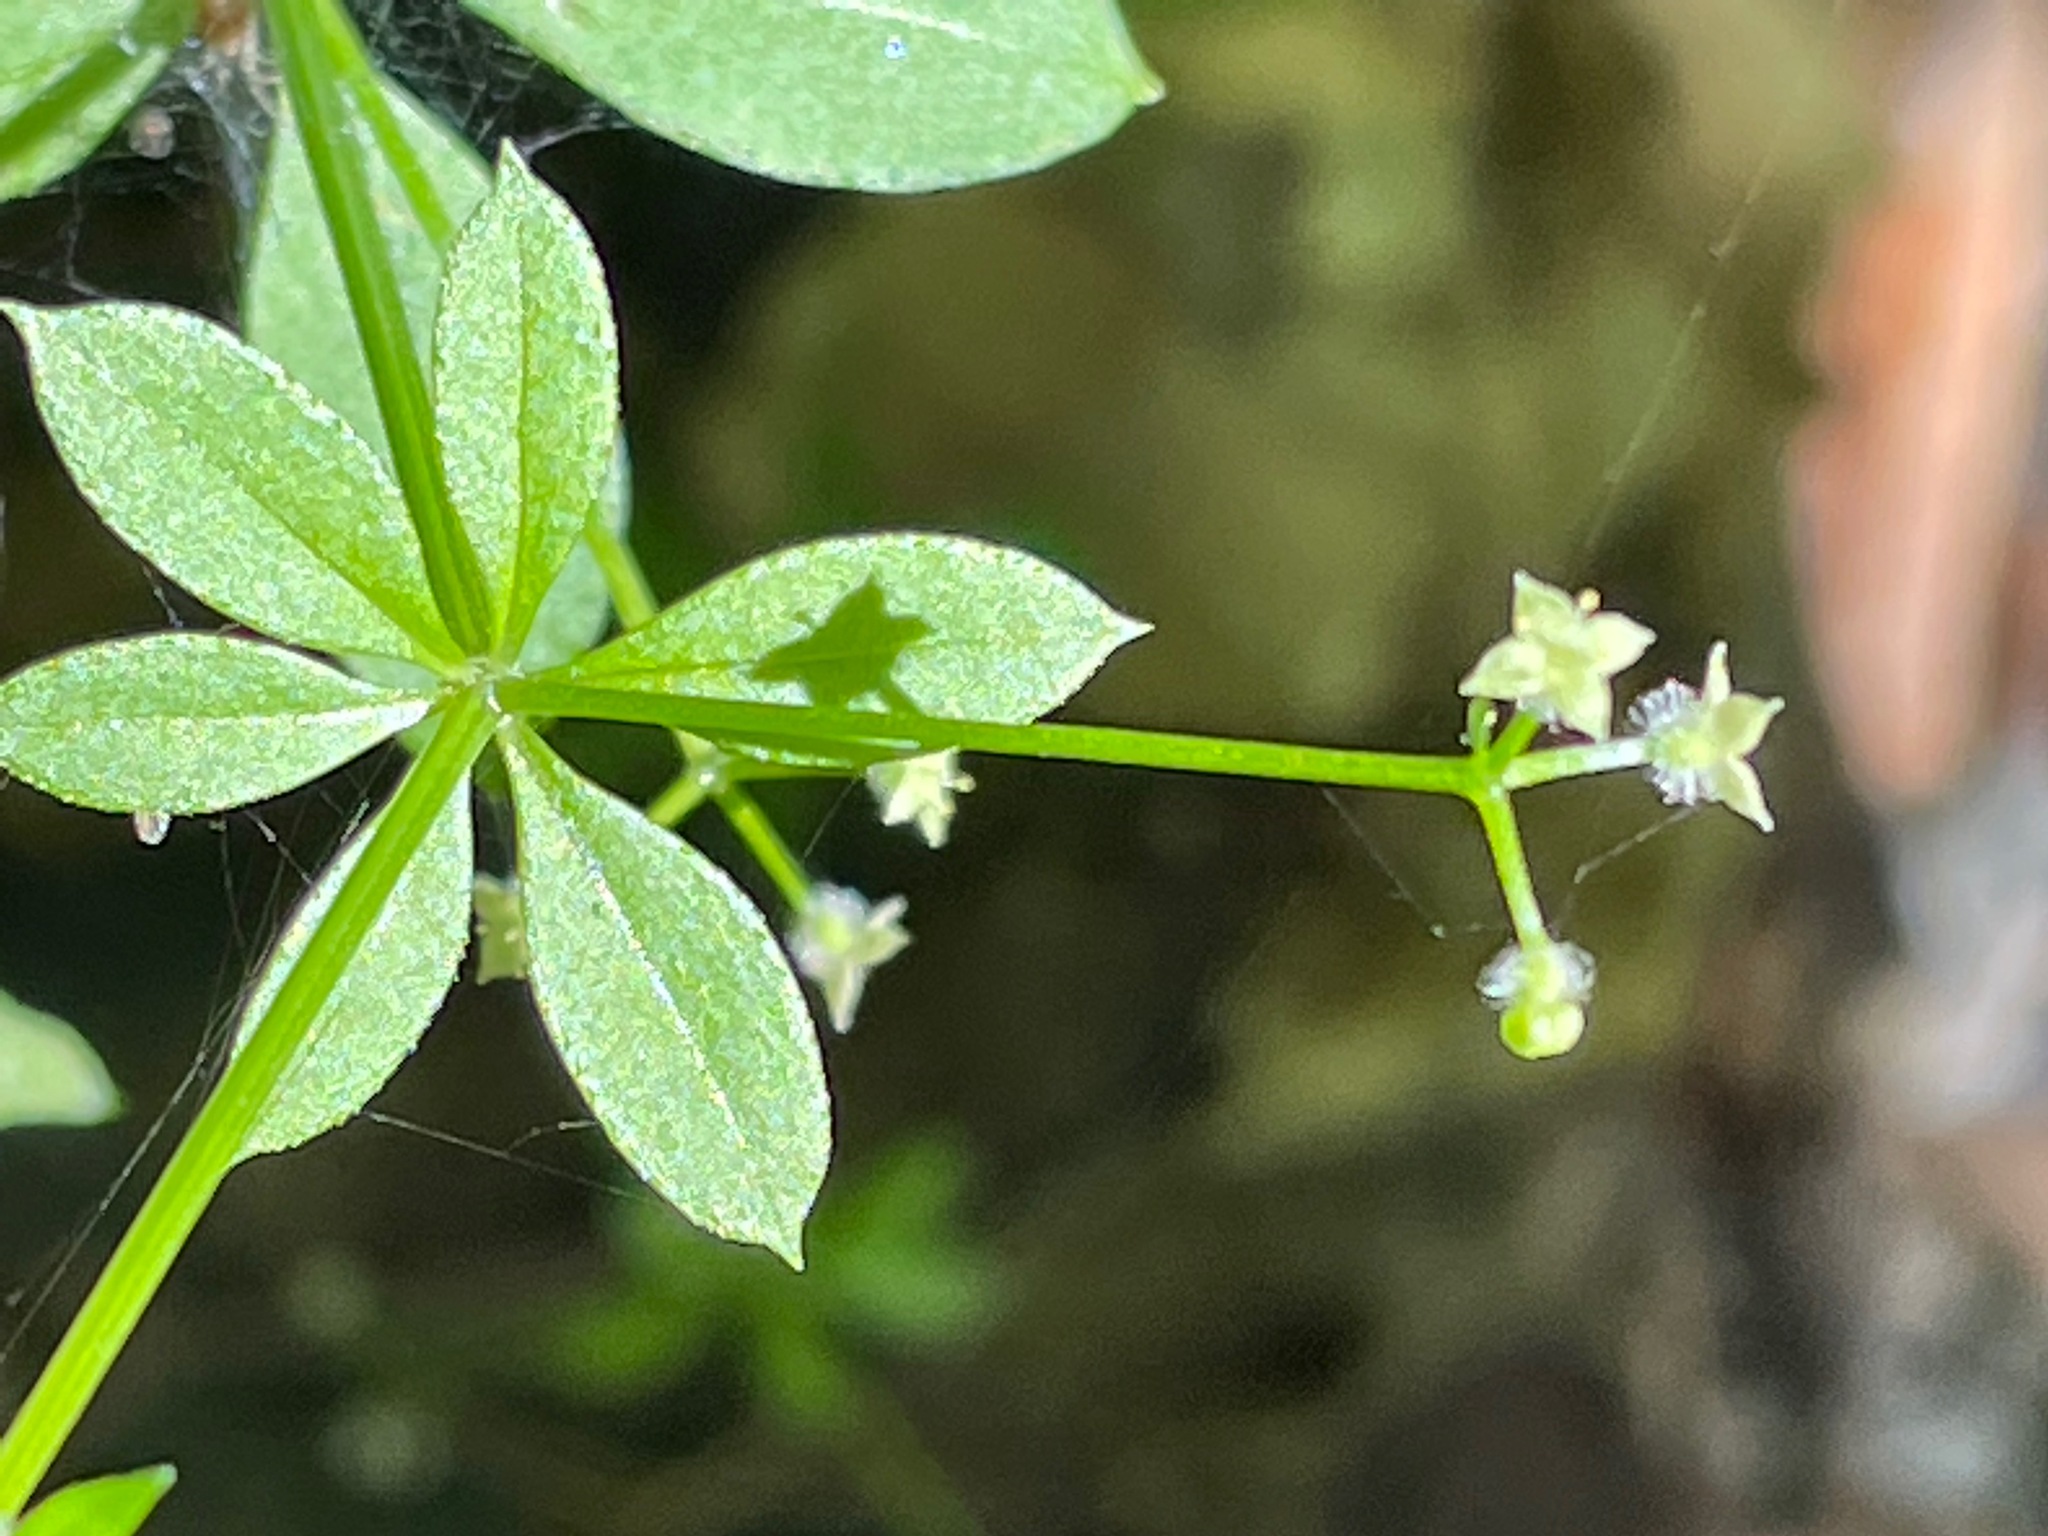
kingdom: Plantae
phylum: Tracheophyta
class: Magnoliopsida
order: Gentianales
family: Rubiaceae
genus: Galium
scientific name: Galium triflorum
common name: Fragrant bedstraw
